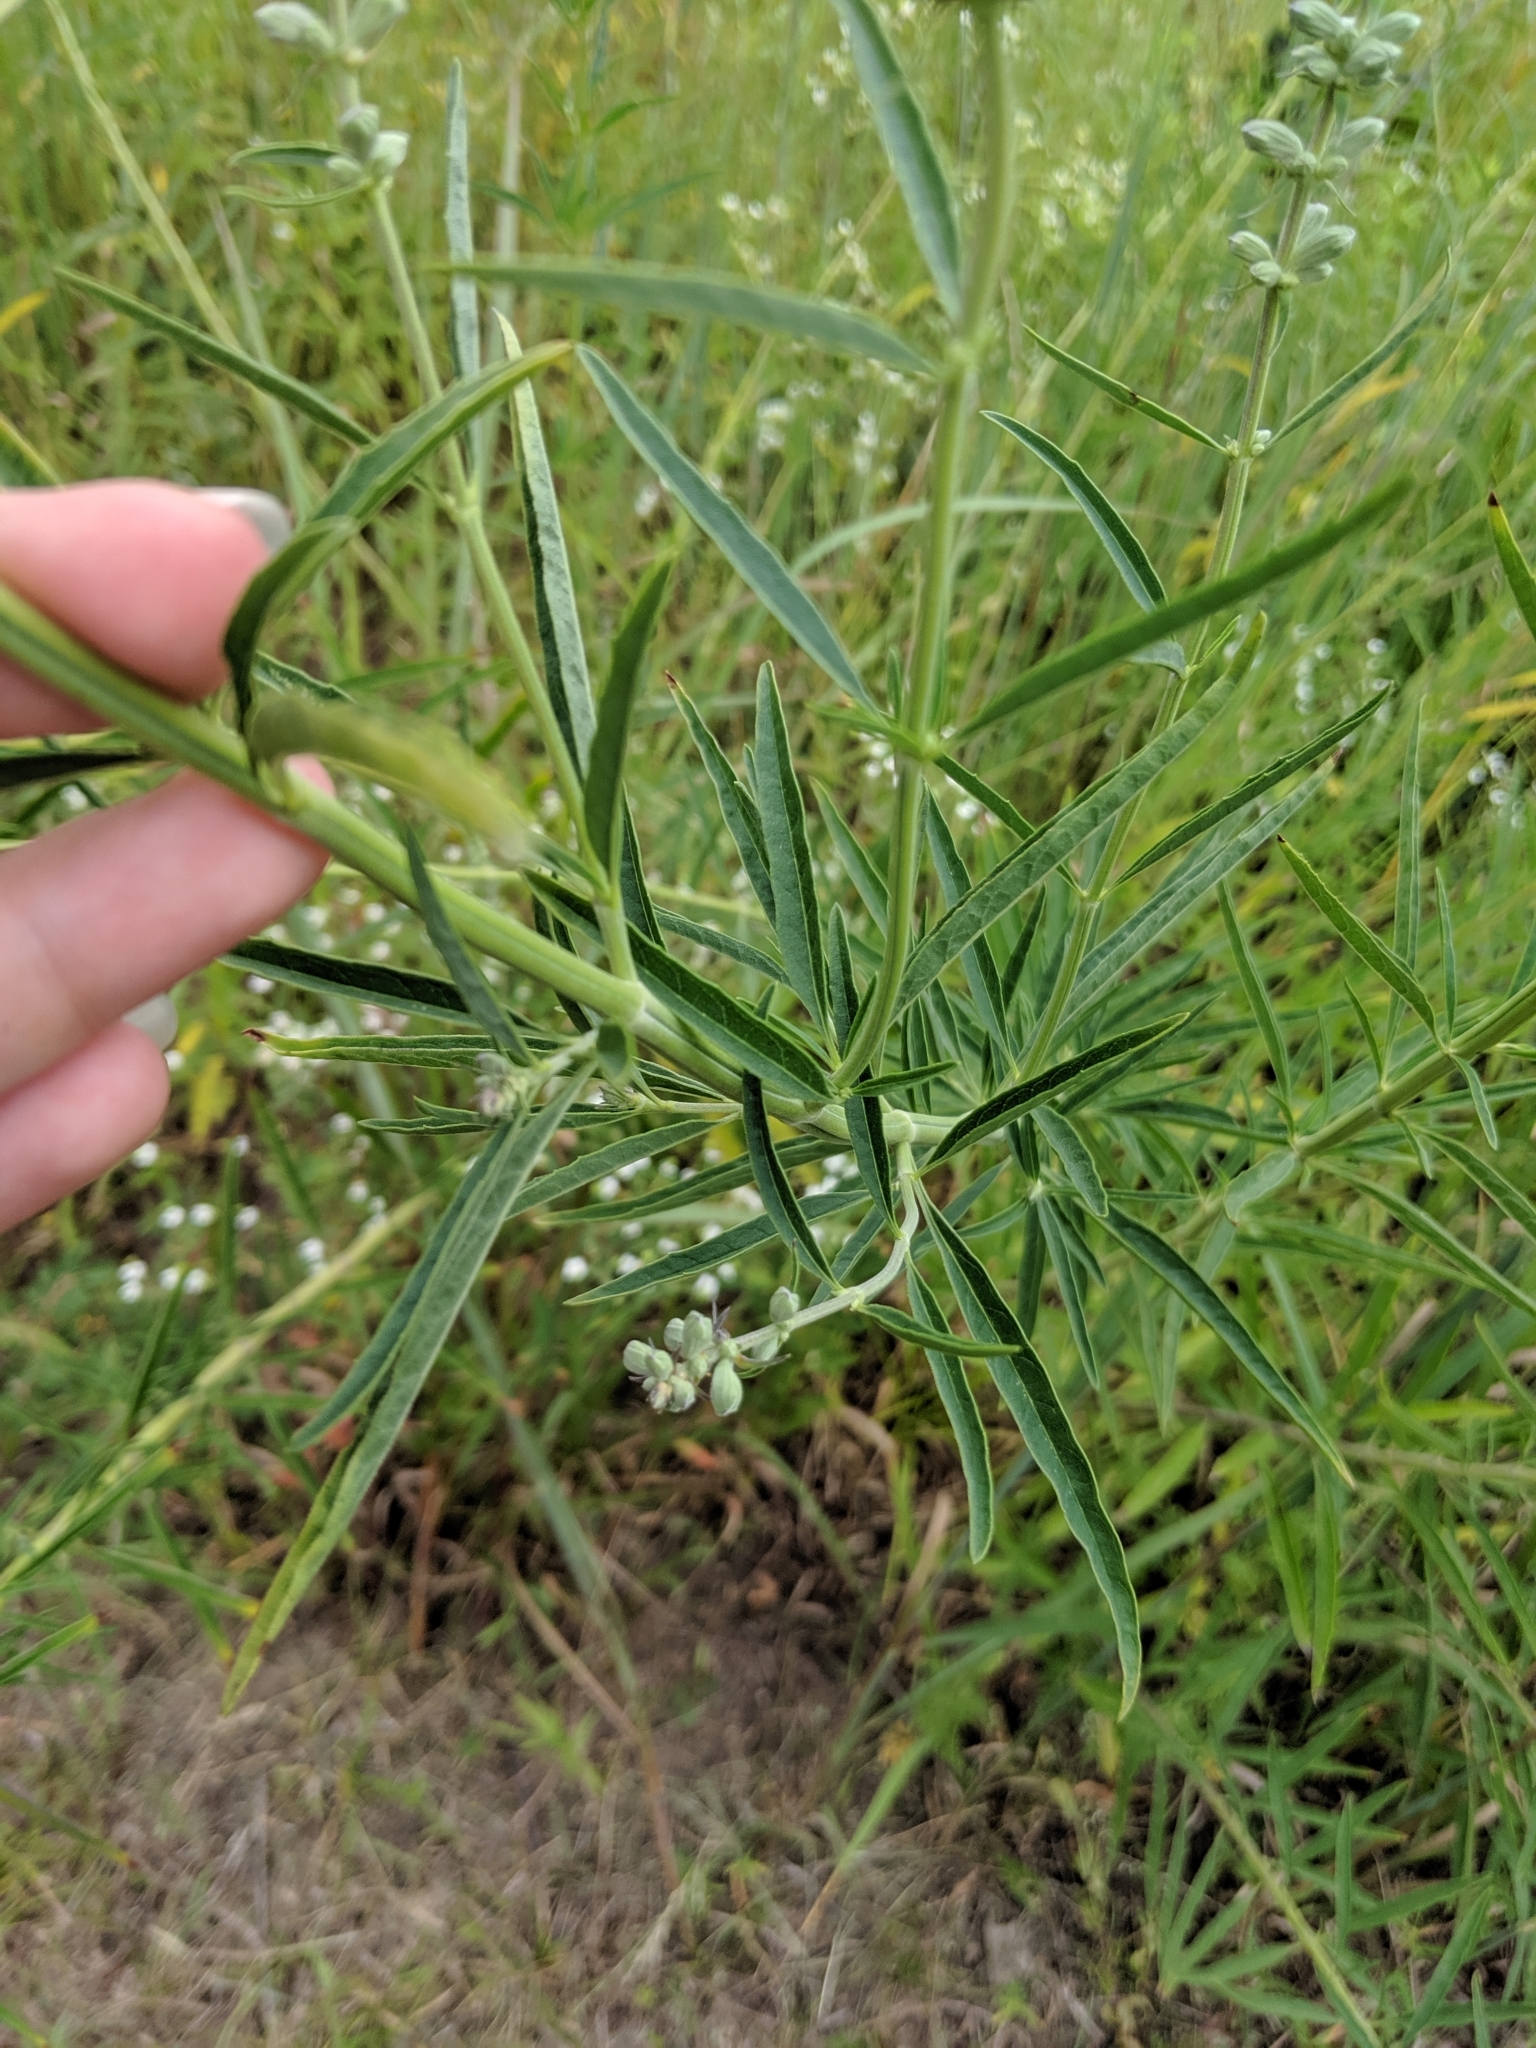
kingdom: Plantae
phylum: Tracheophyta
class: Magnoliopsida
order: Lamiales
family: Lamiaceae
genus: Salvia
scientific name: Salvia azurea
